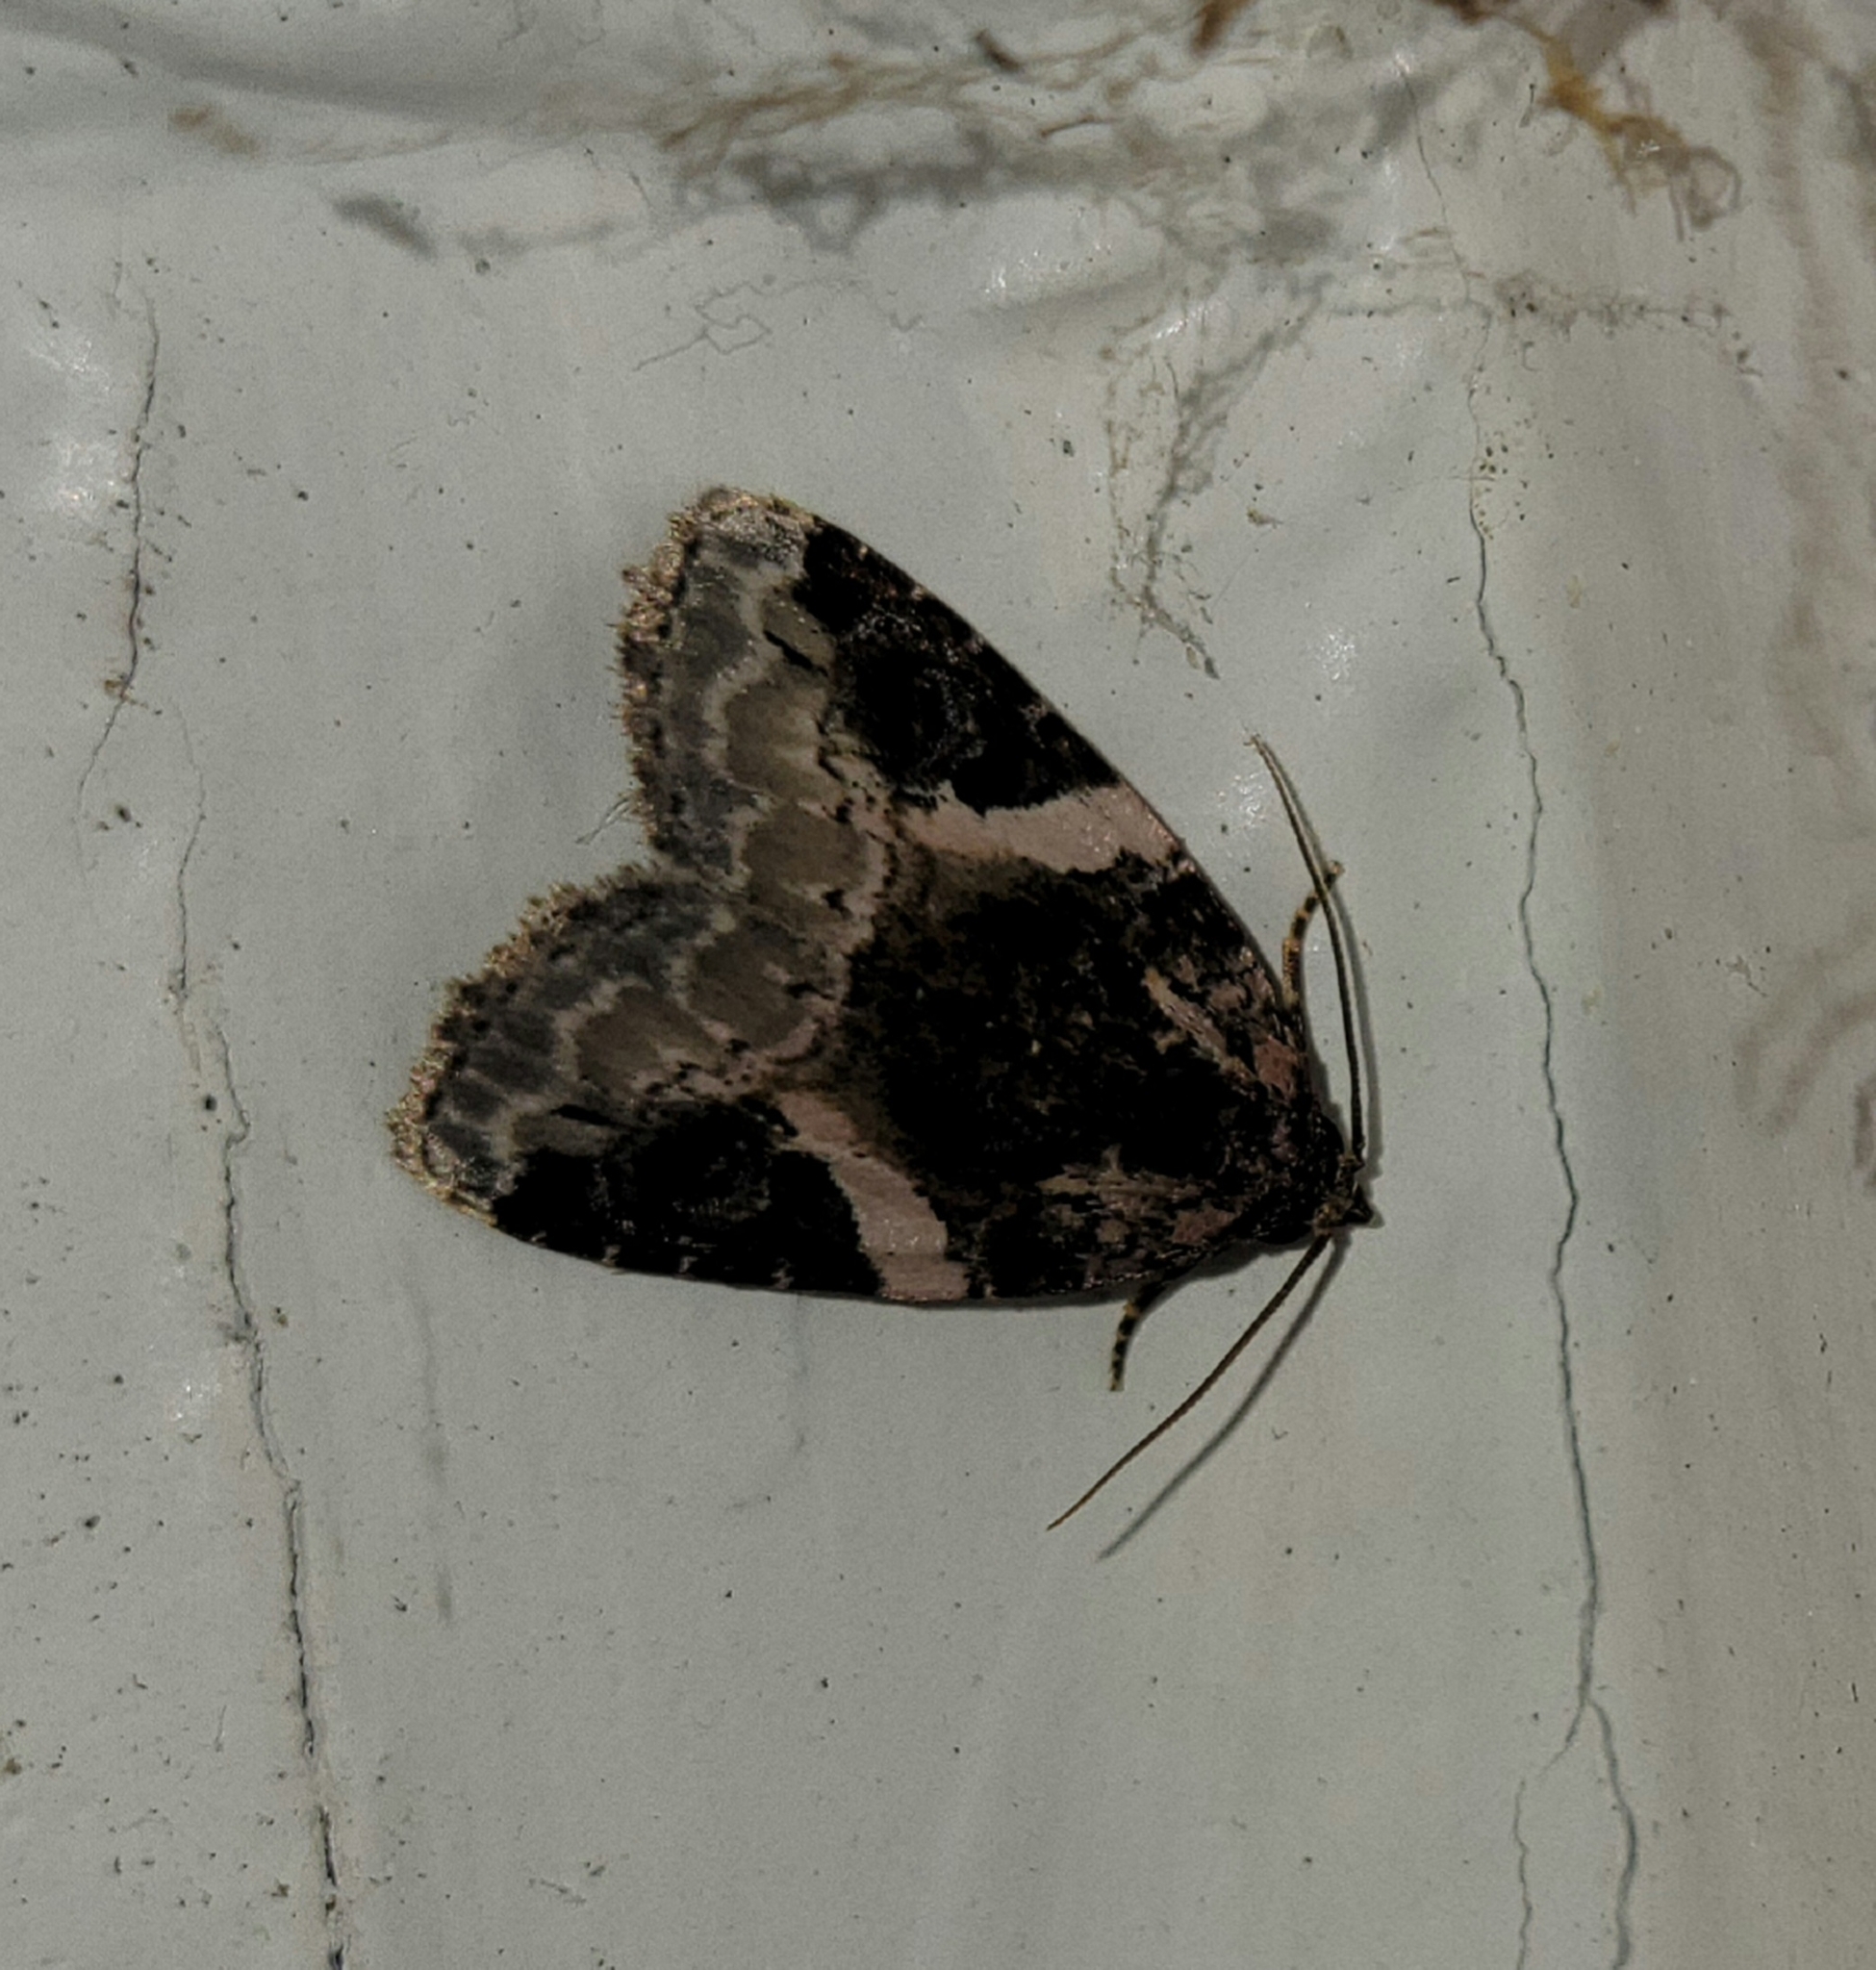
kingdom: Animalia
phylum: Arthropoda
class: Insecta
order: Lepidoptera
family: Noctuidae
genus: Pseudeustrotia
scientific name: Pseudeustrotia carneola
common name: Pink-barred lithacodia moth
